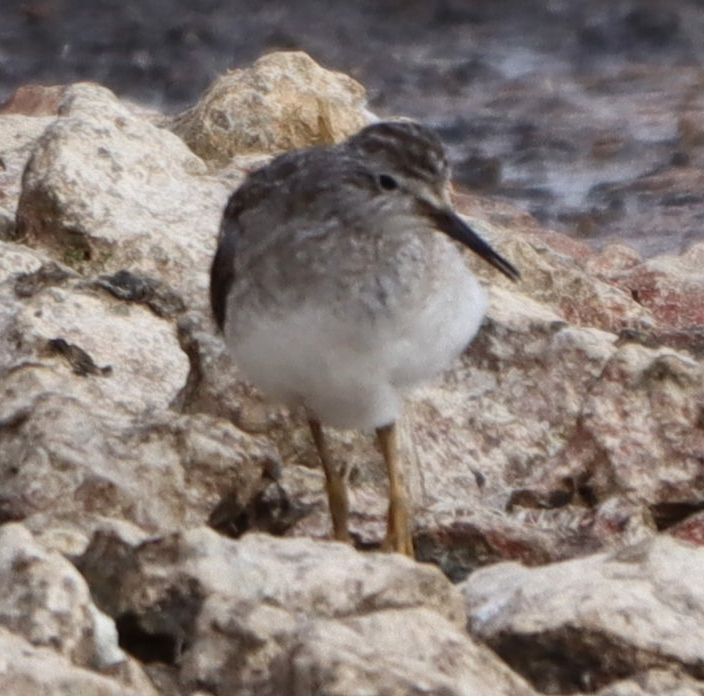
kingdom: Animalia
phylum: Chordata
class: Aves
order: Charadriiformes
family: Scolopacidae
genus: Tringa
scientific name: Tringa flavipes
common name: Lesser yellowlegs
